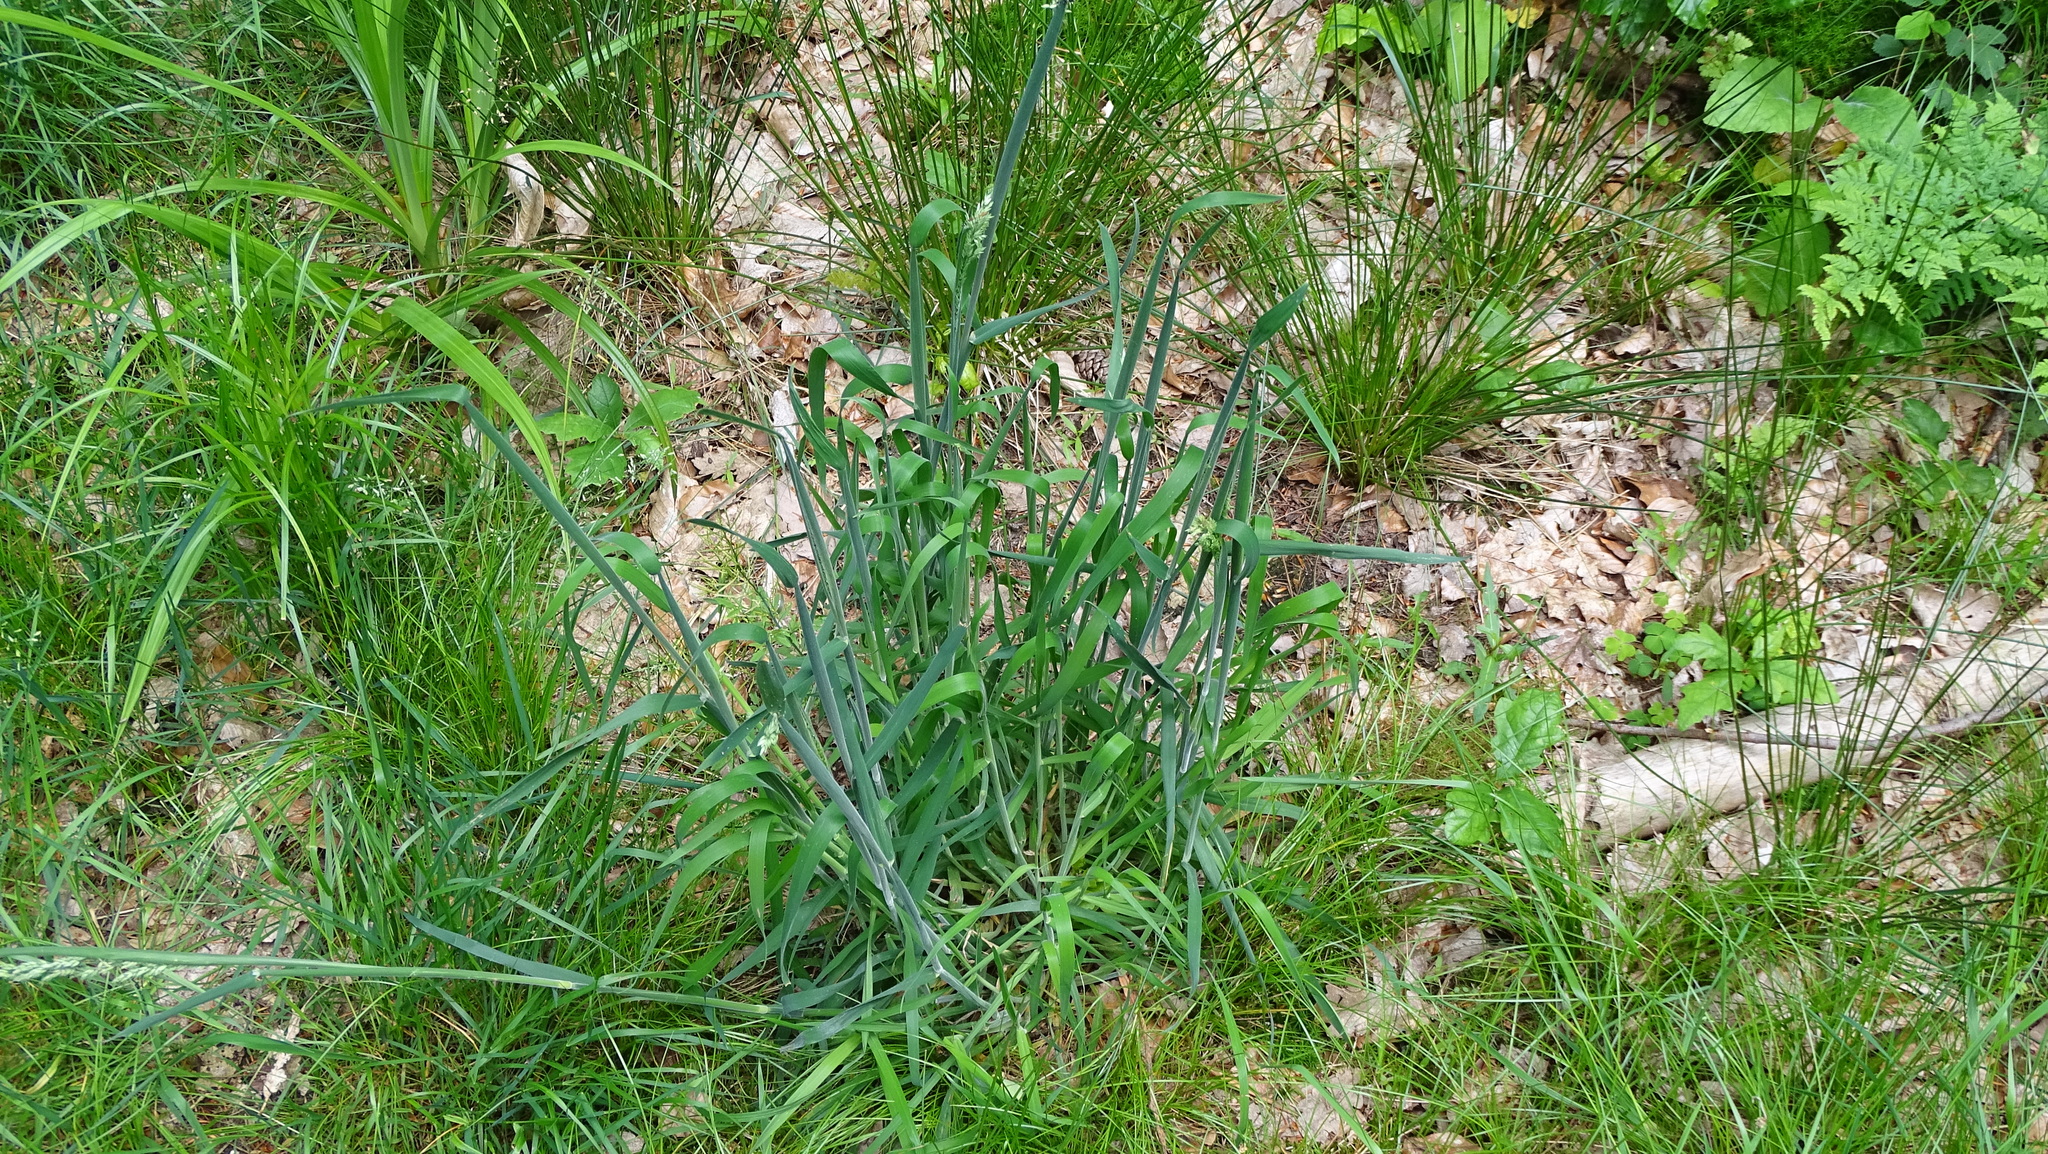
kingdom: Plantae
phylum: Tracheophyta
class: Liliopsida
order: Poales
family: Poaceae
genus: Holcus
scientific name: Holcus lanatus
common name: Yorkshire-fog
